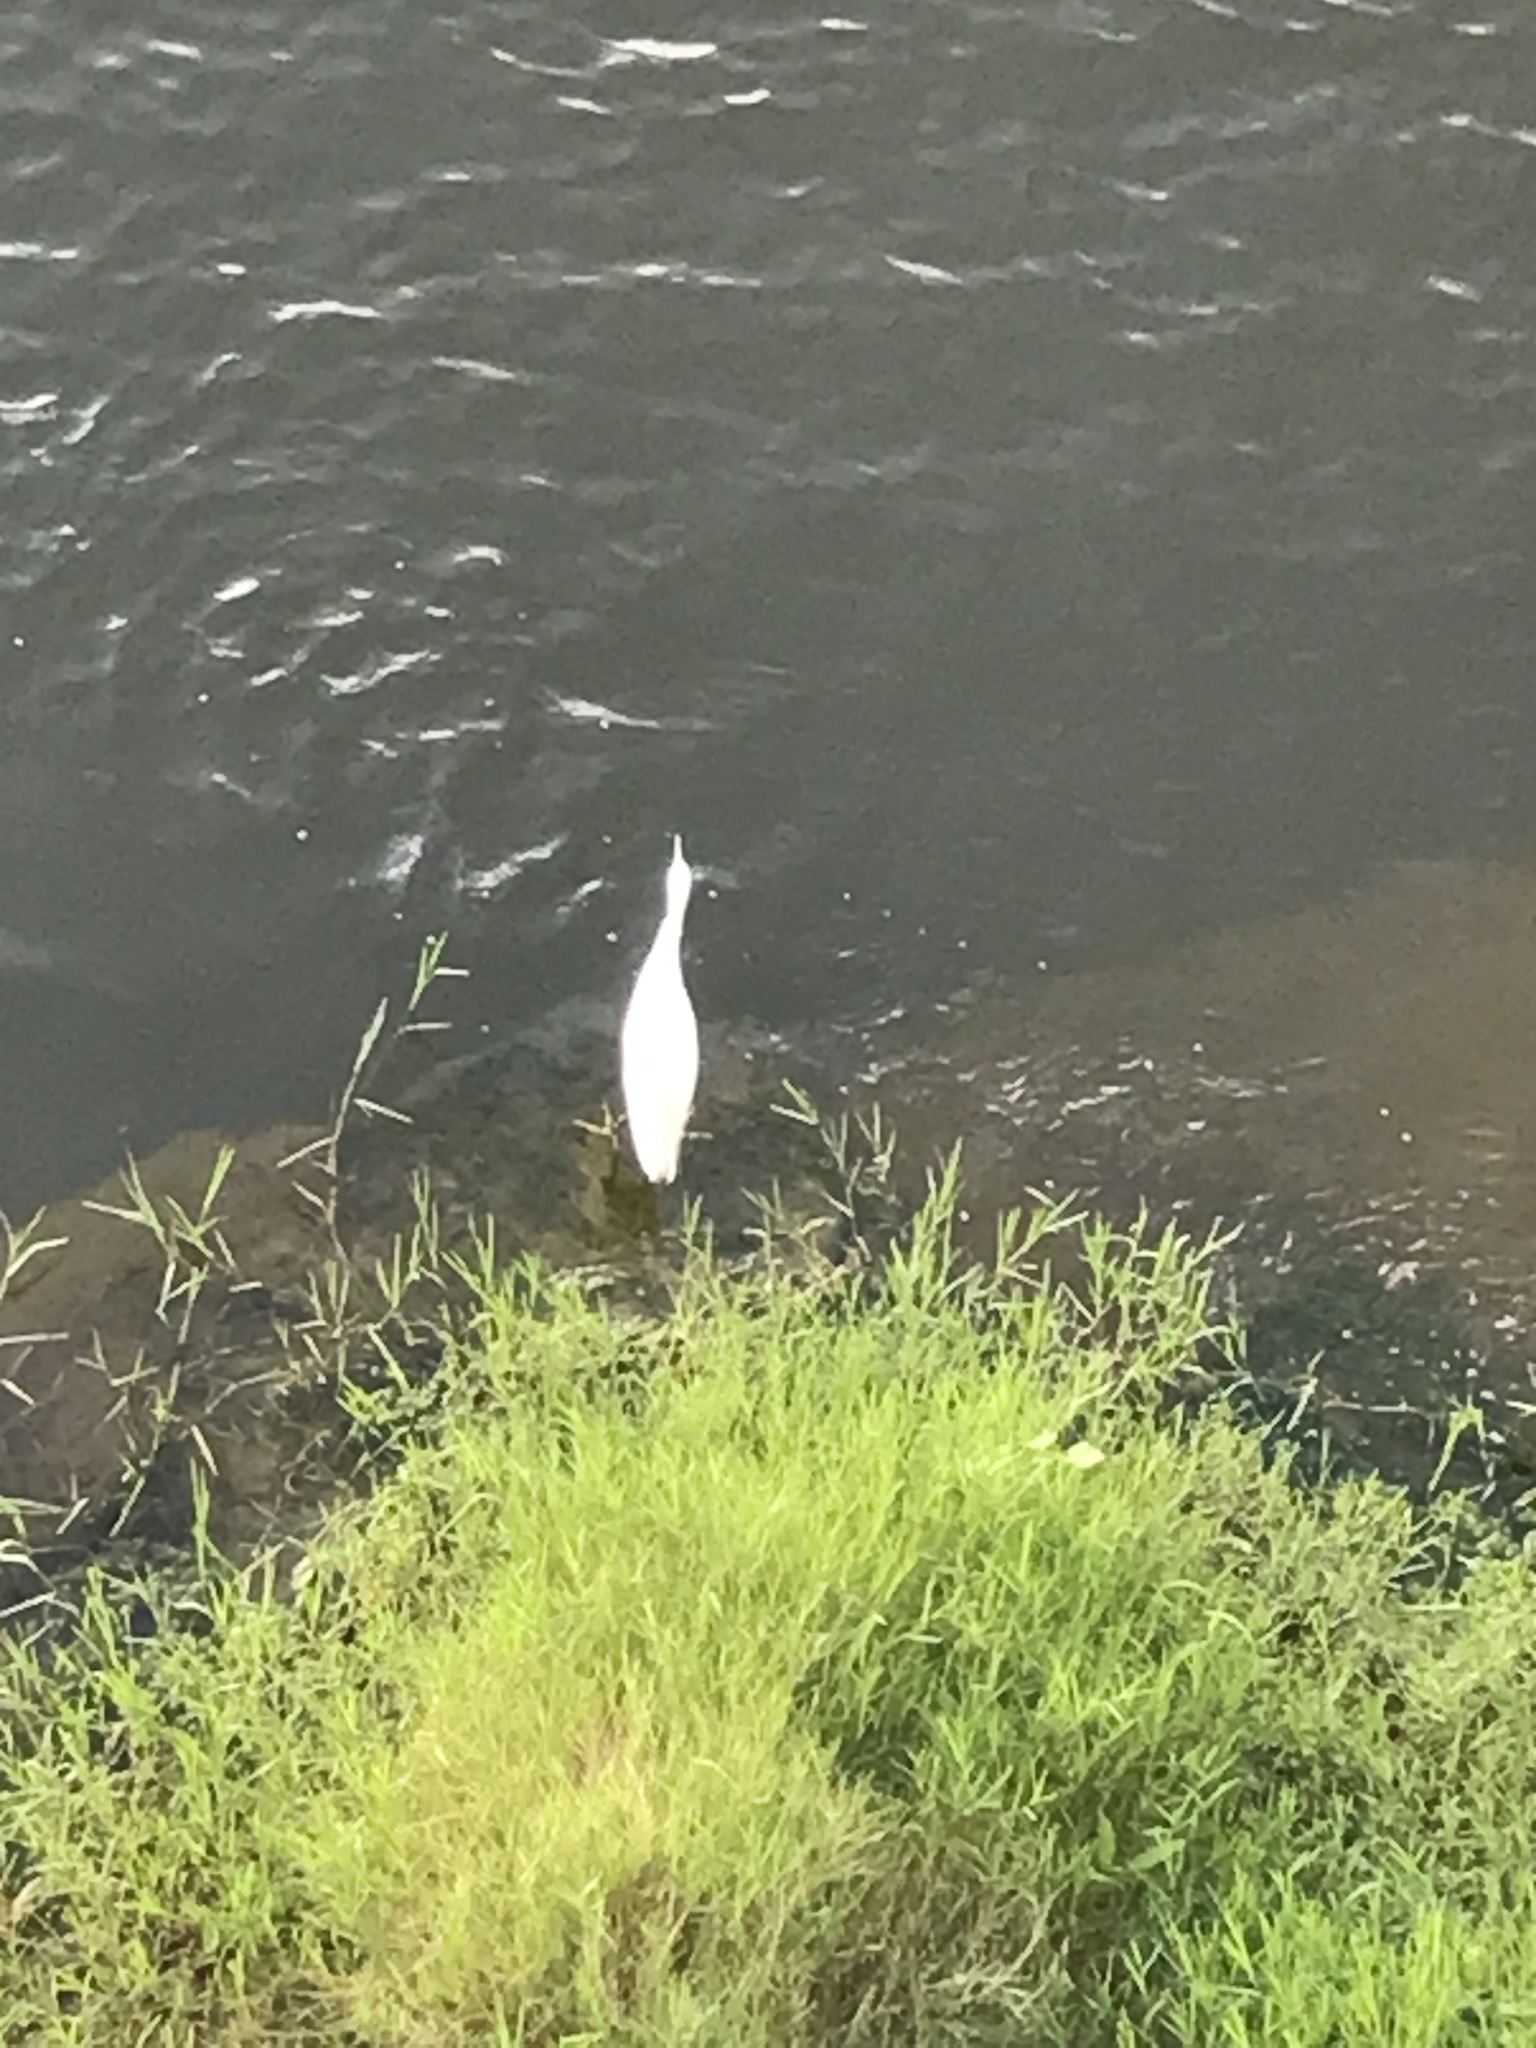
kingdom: Animalia
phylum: Chordata
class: Aves
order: Pelecaniformes
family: Ardeidae
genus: Egretta
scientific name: Egretta garzetta
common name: Little egret
